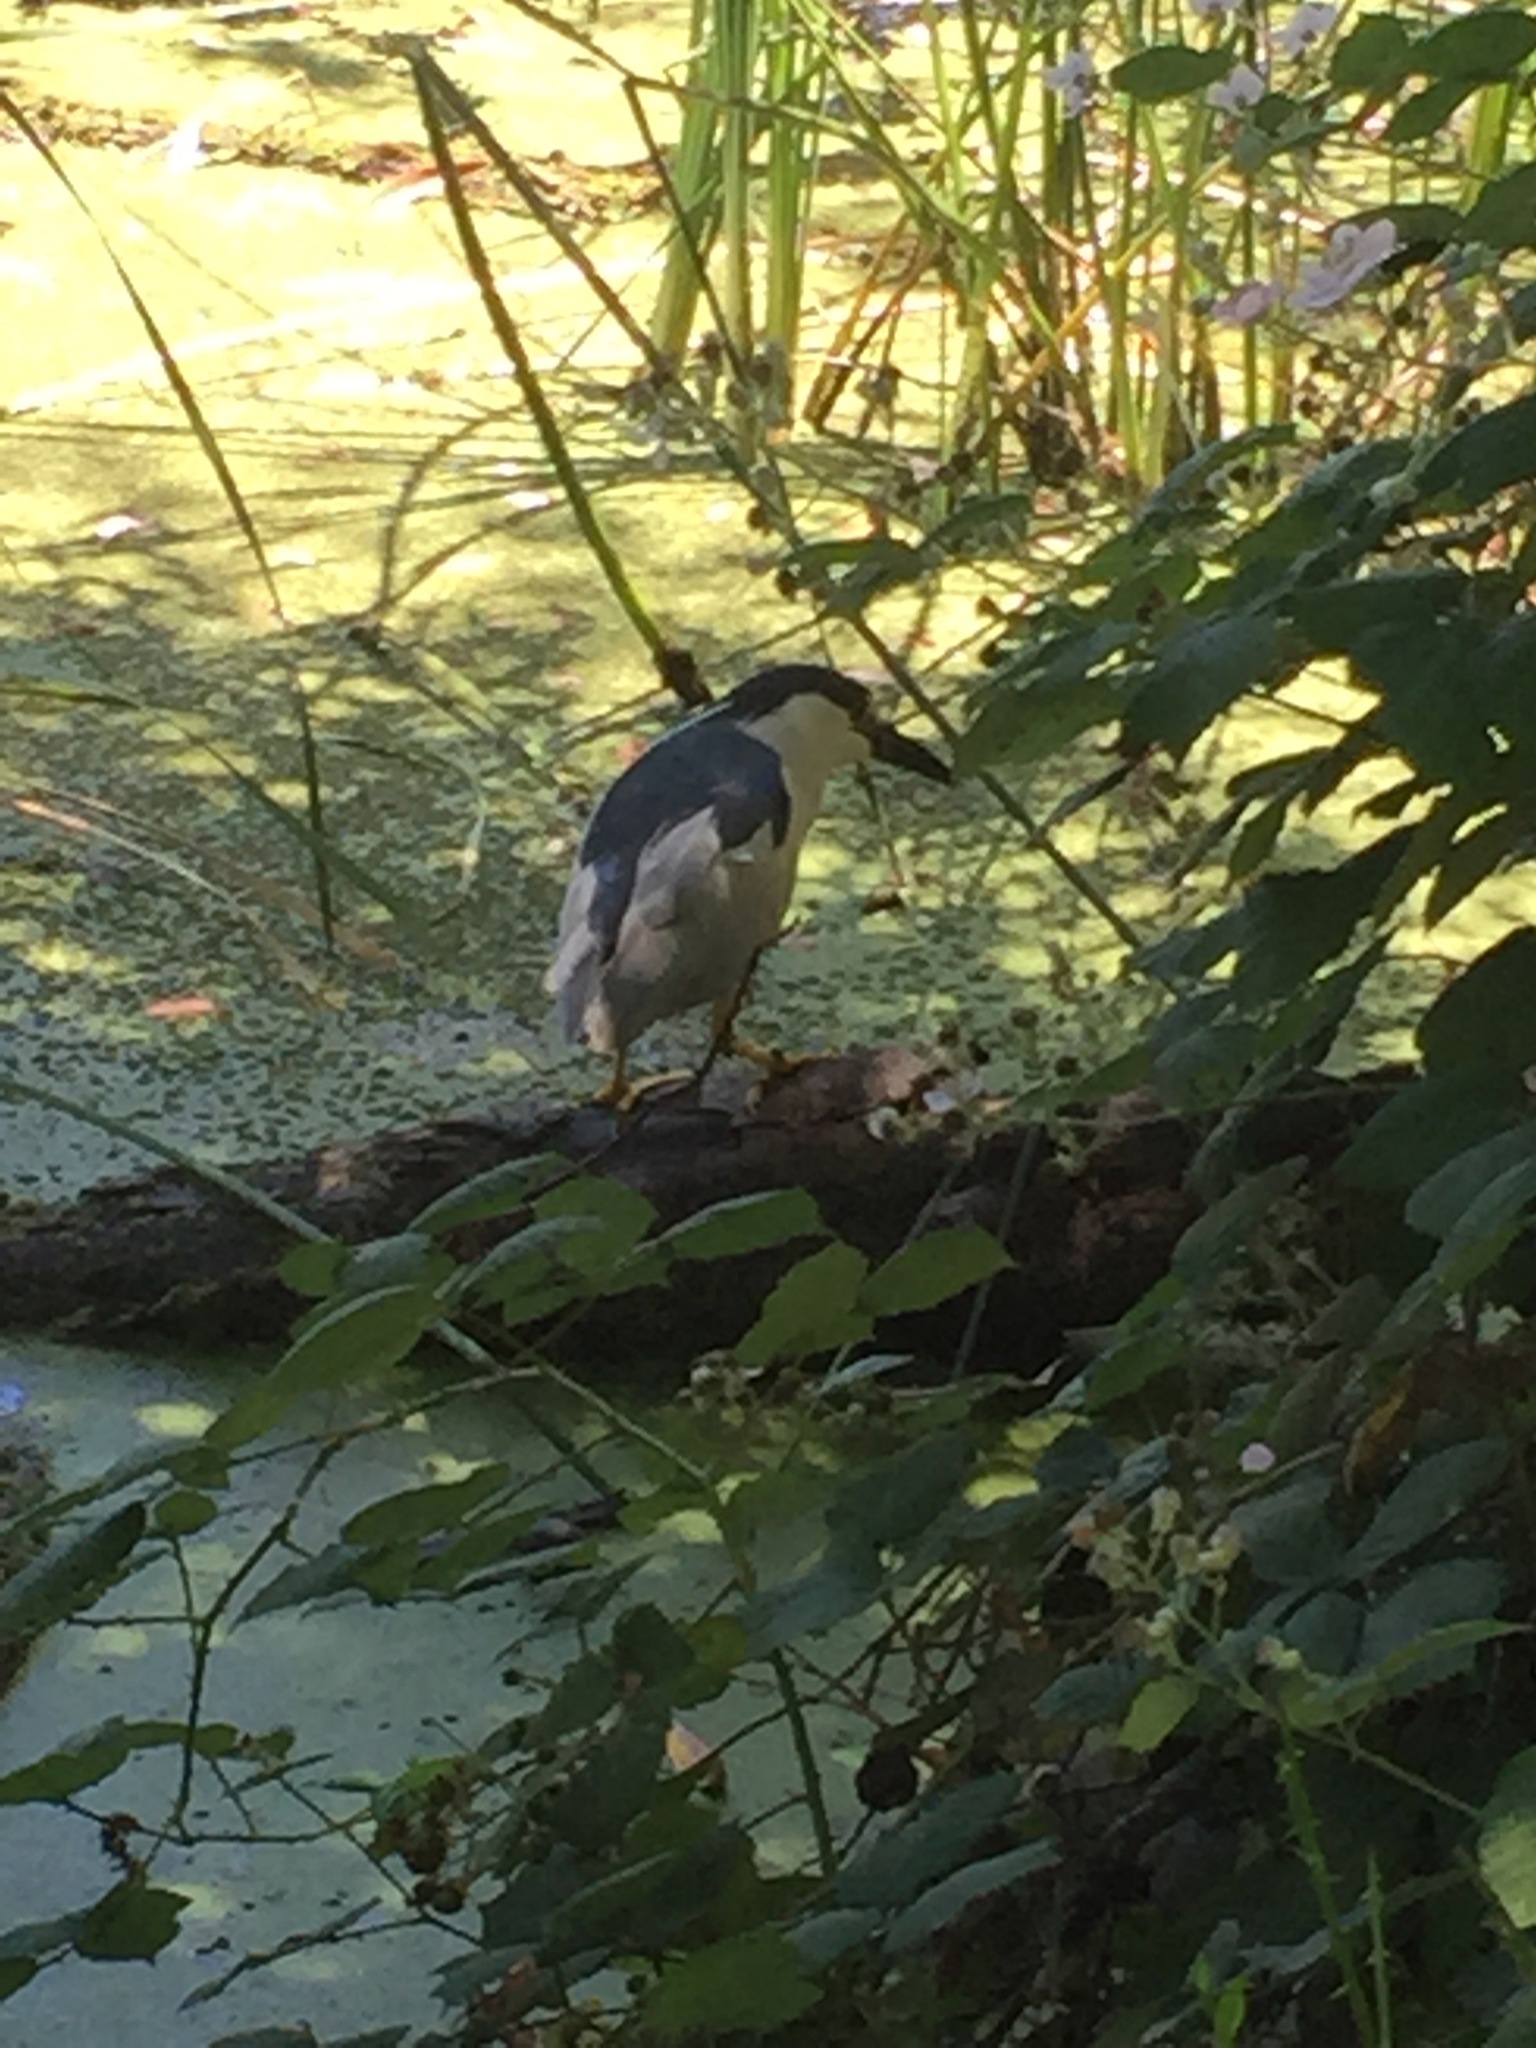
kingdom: Animalia
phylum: Chordata
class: Aves
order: Pelecaniformes
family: Ardeidae
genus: Nycticorax
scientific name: Nycticorax nycticorax
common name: Black-crowned night heron
